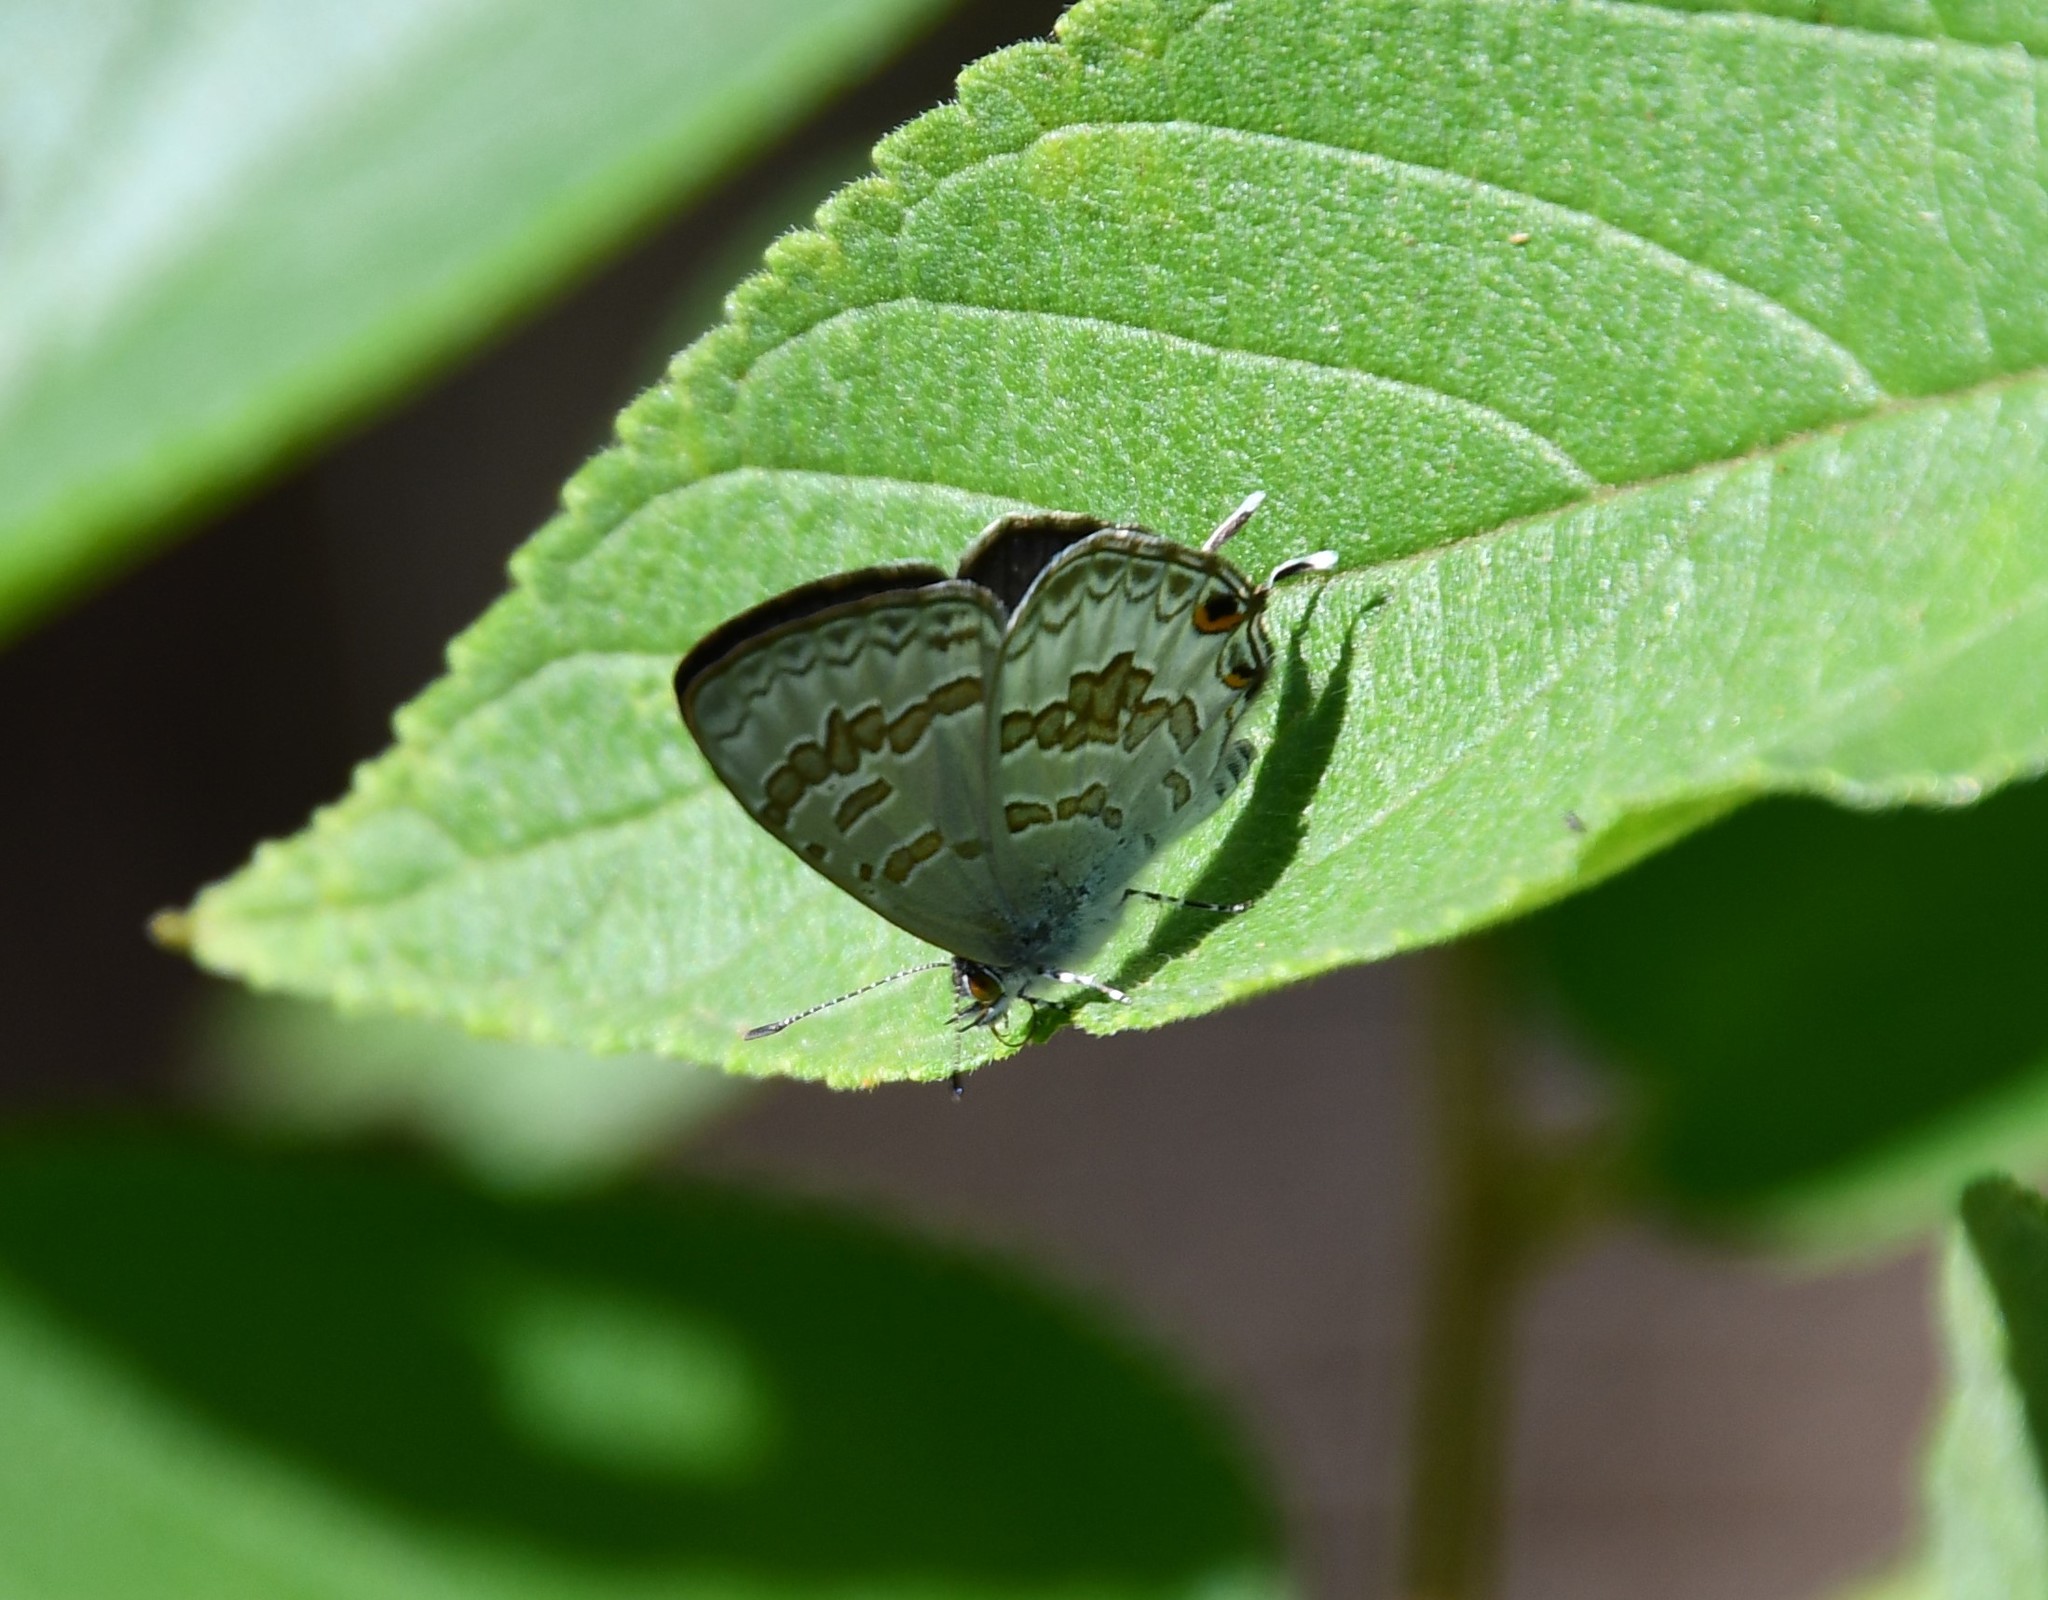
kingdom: Animalia
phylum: Arthropoda
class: Insecta
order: Lepidoptera
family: Lycaenidae
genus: Catopyrops
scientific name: Catopyrops florinda
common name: Speckled line-blue
